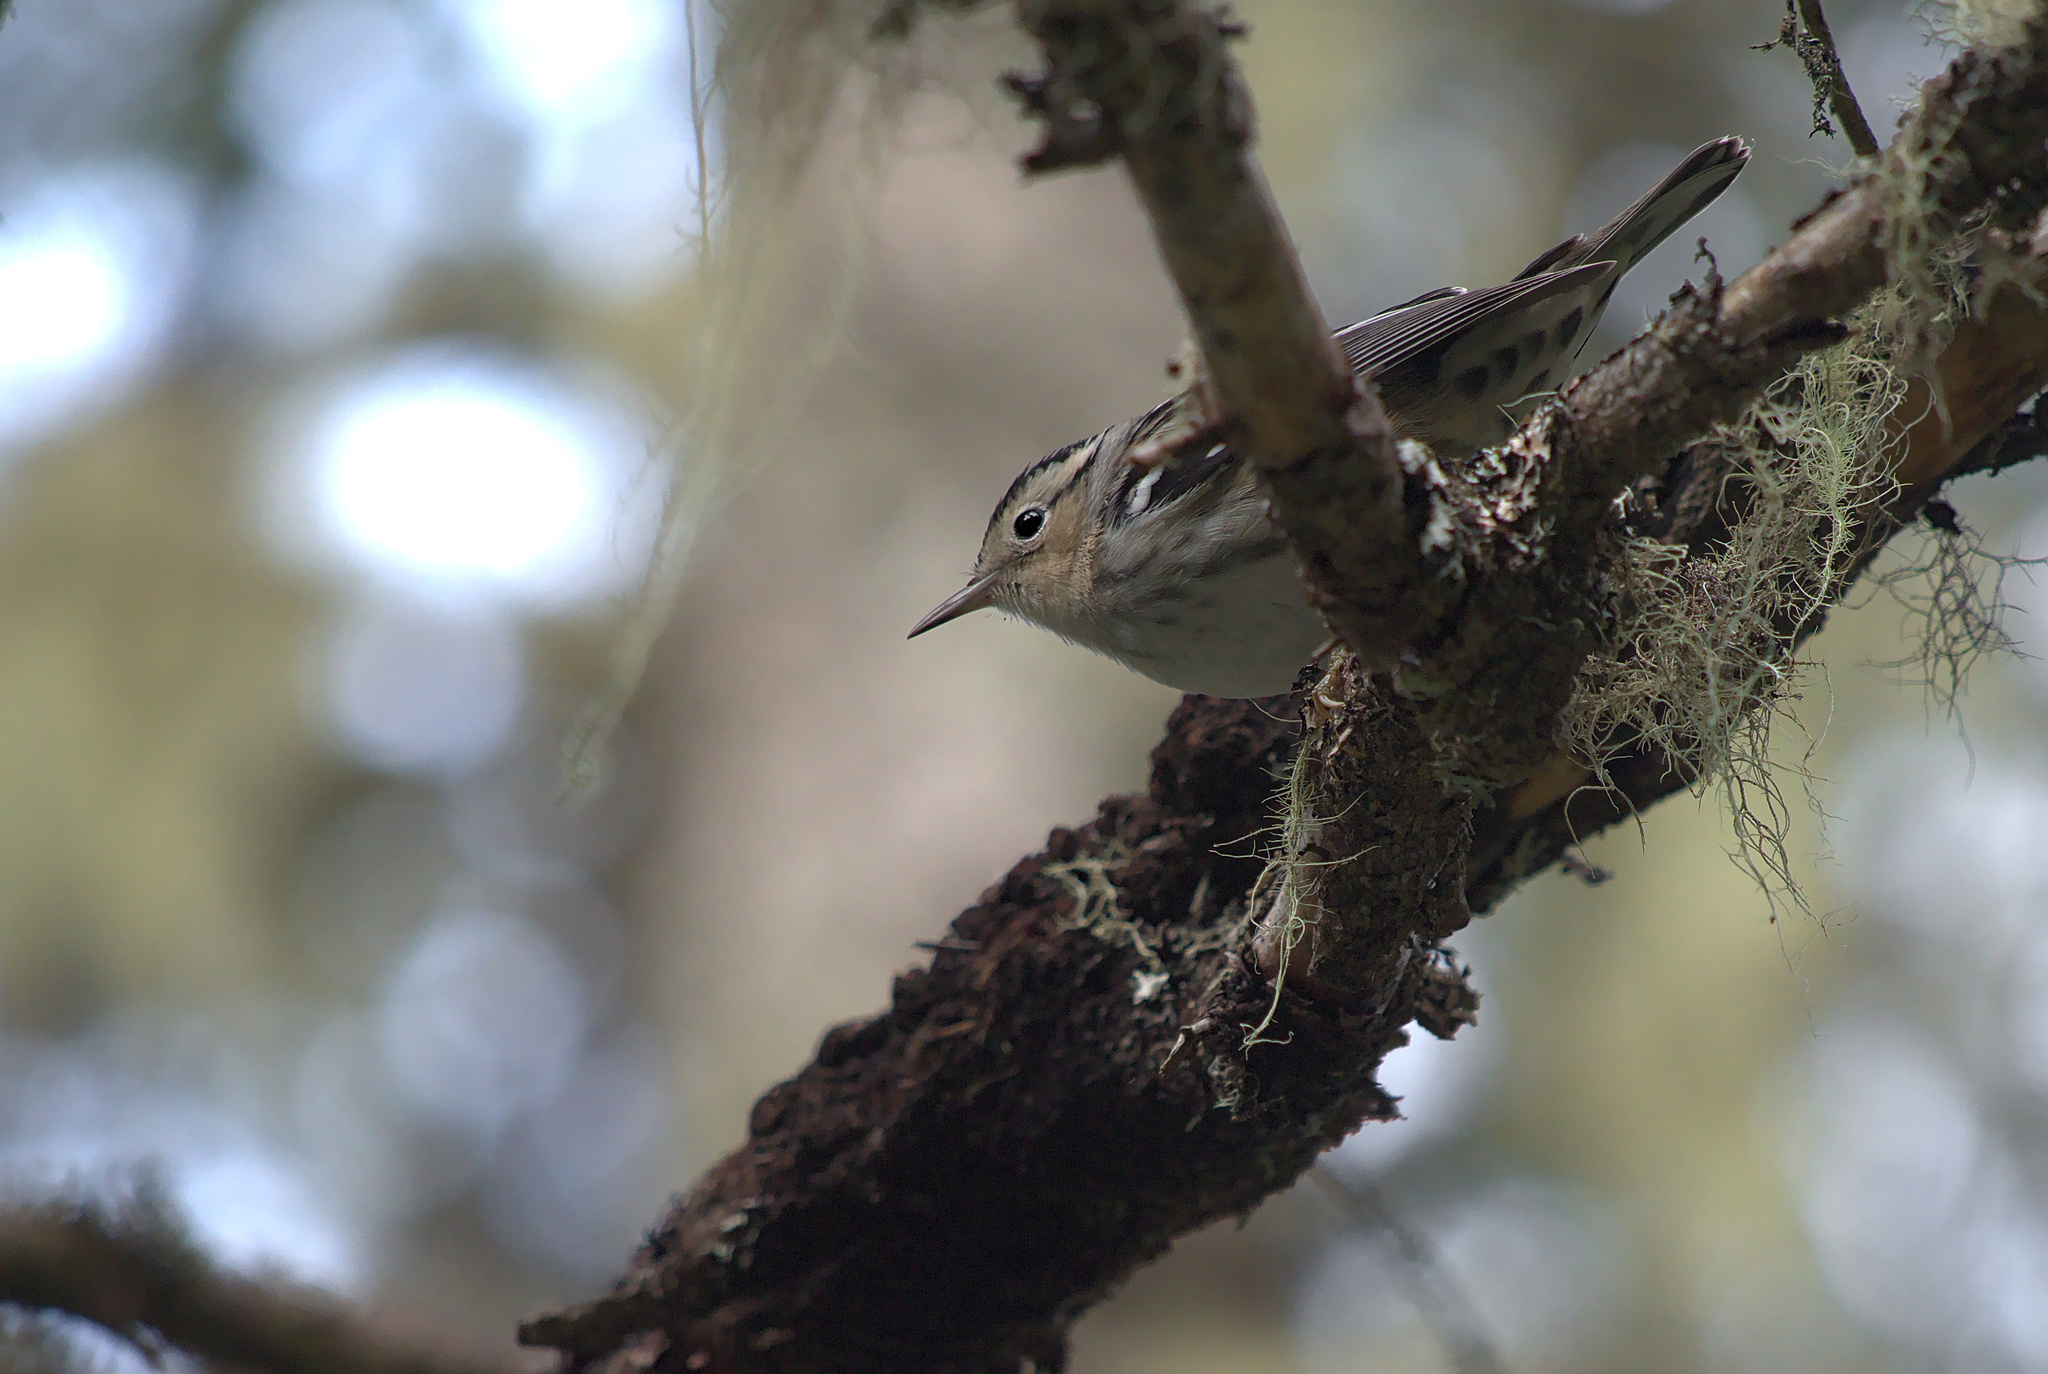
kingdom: Animalia
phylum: Chordata
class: Aves
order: Passeriformes
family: Parulidae
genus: Mniotilta
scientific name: Mniotilta varia
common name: Black-and-white warbler
